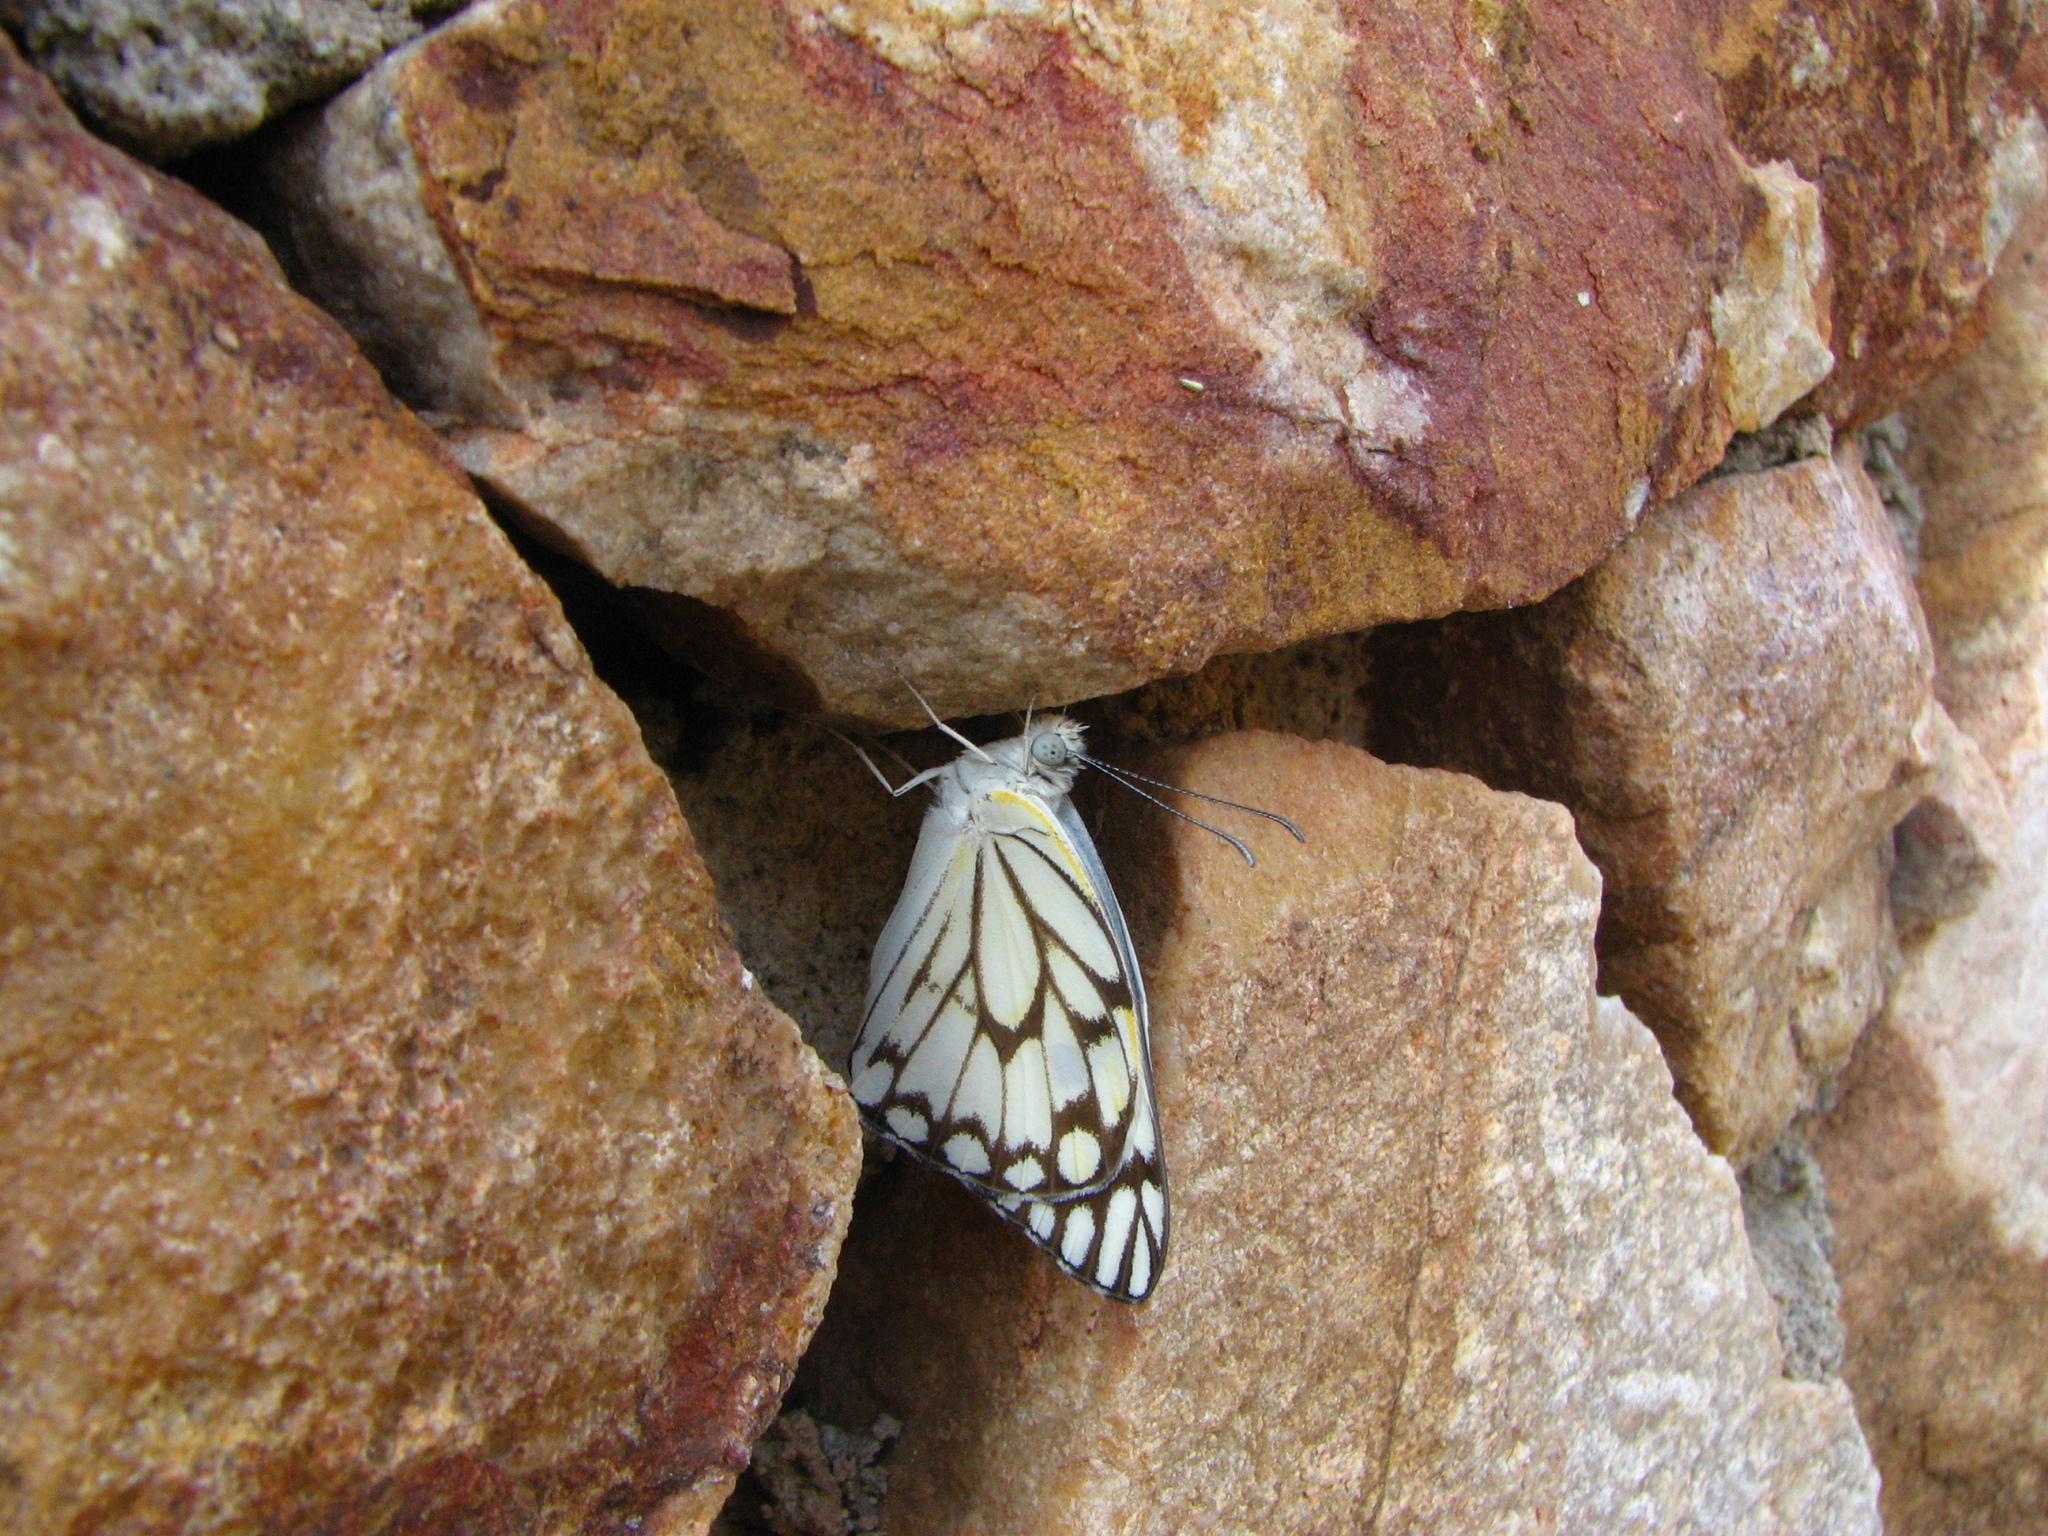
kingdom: Animalia
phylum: Arthropoda
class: Insecta
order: Lepidoptera
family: Pieridae
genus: Belenois
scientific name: Belenois aurota
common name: Brown-veined white
